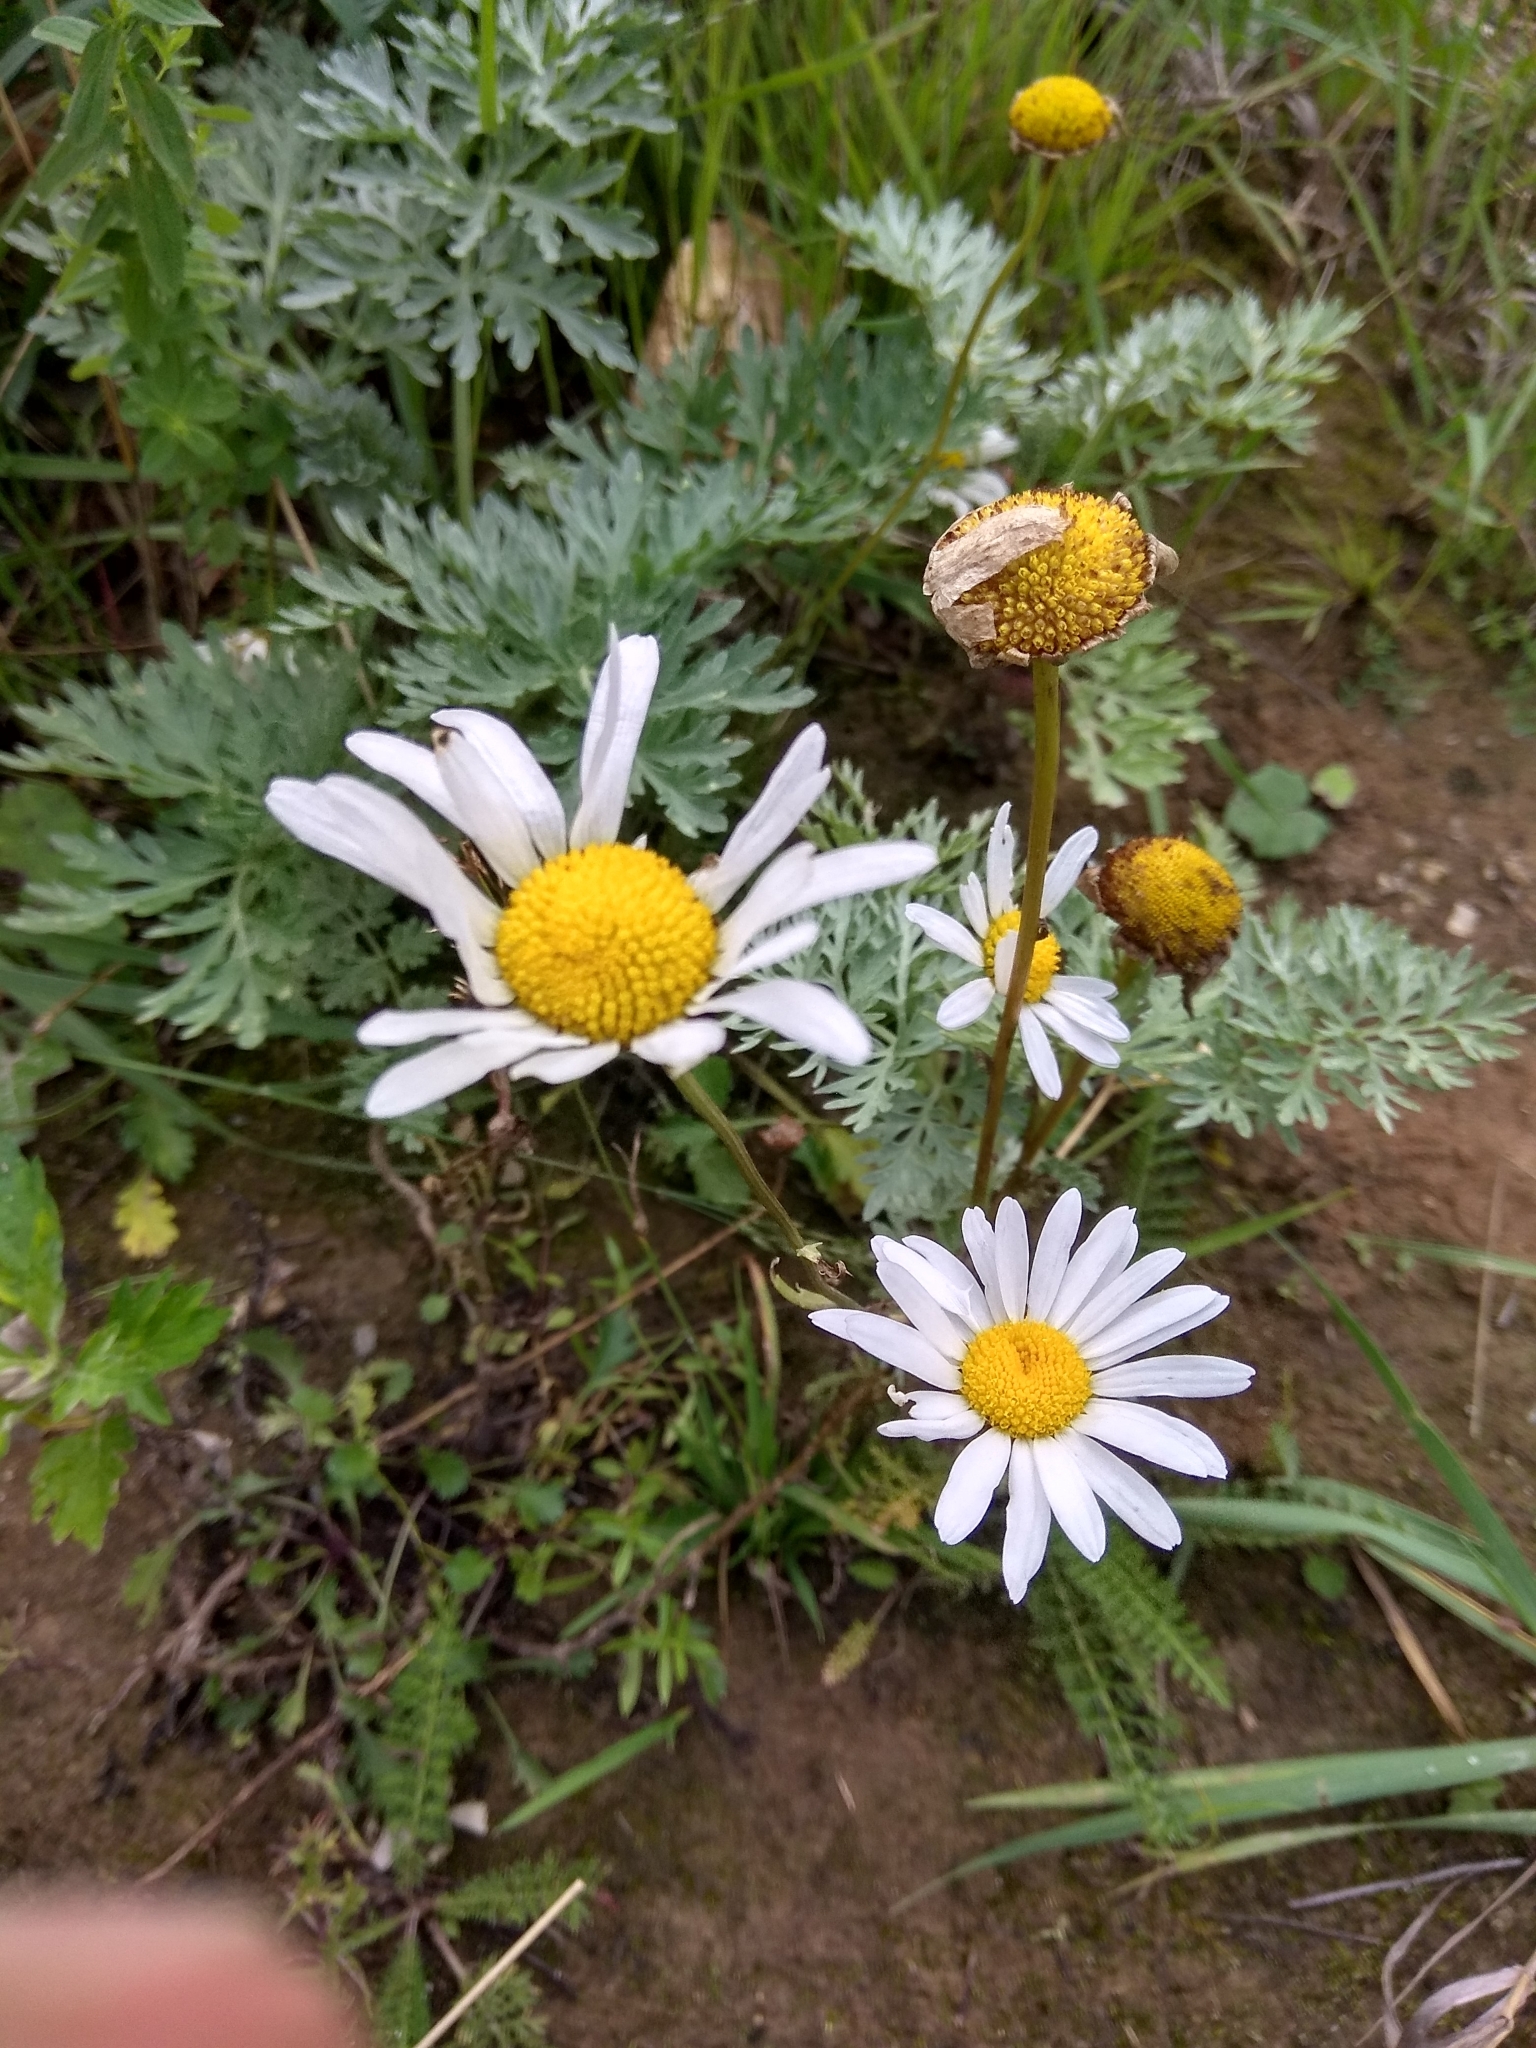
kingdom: Plantae
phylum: Tracheophyta
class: Magnoliopsida
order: Asterales
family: Asteraceae
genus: Leucanthemum
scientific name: Leucanthemum vulgare
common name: Oxeye daisy
